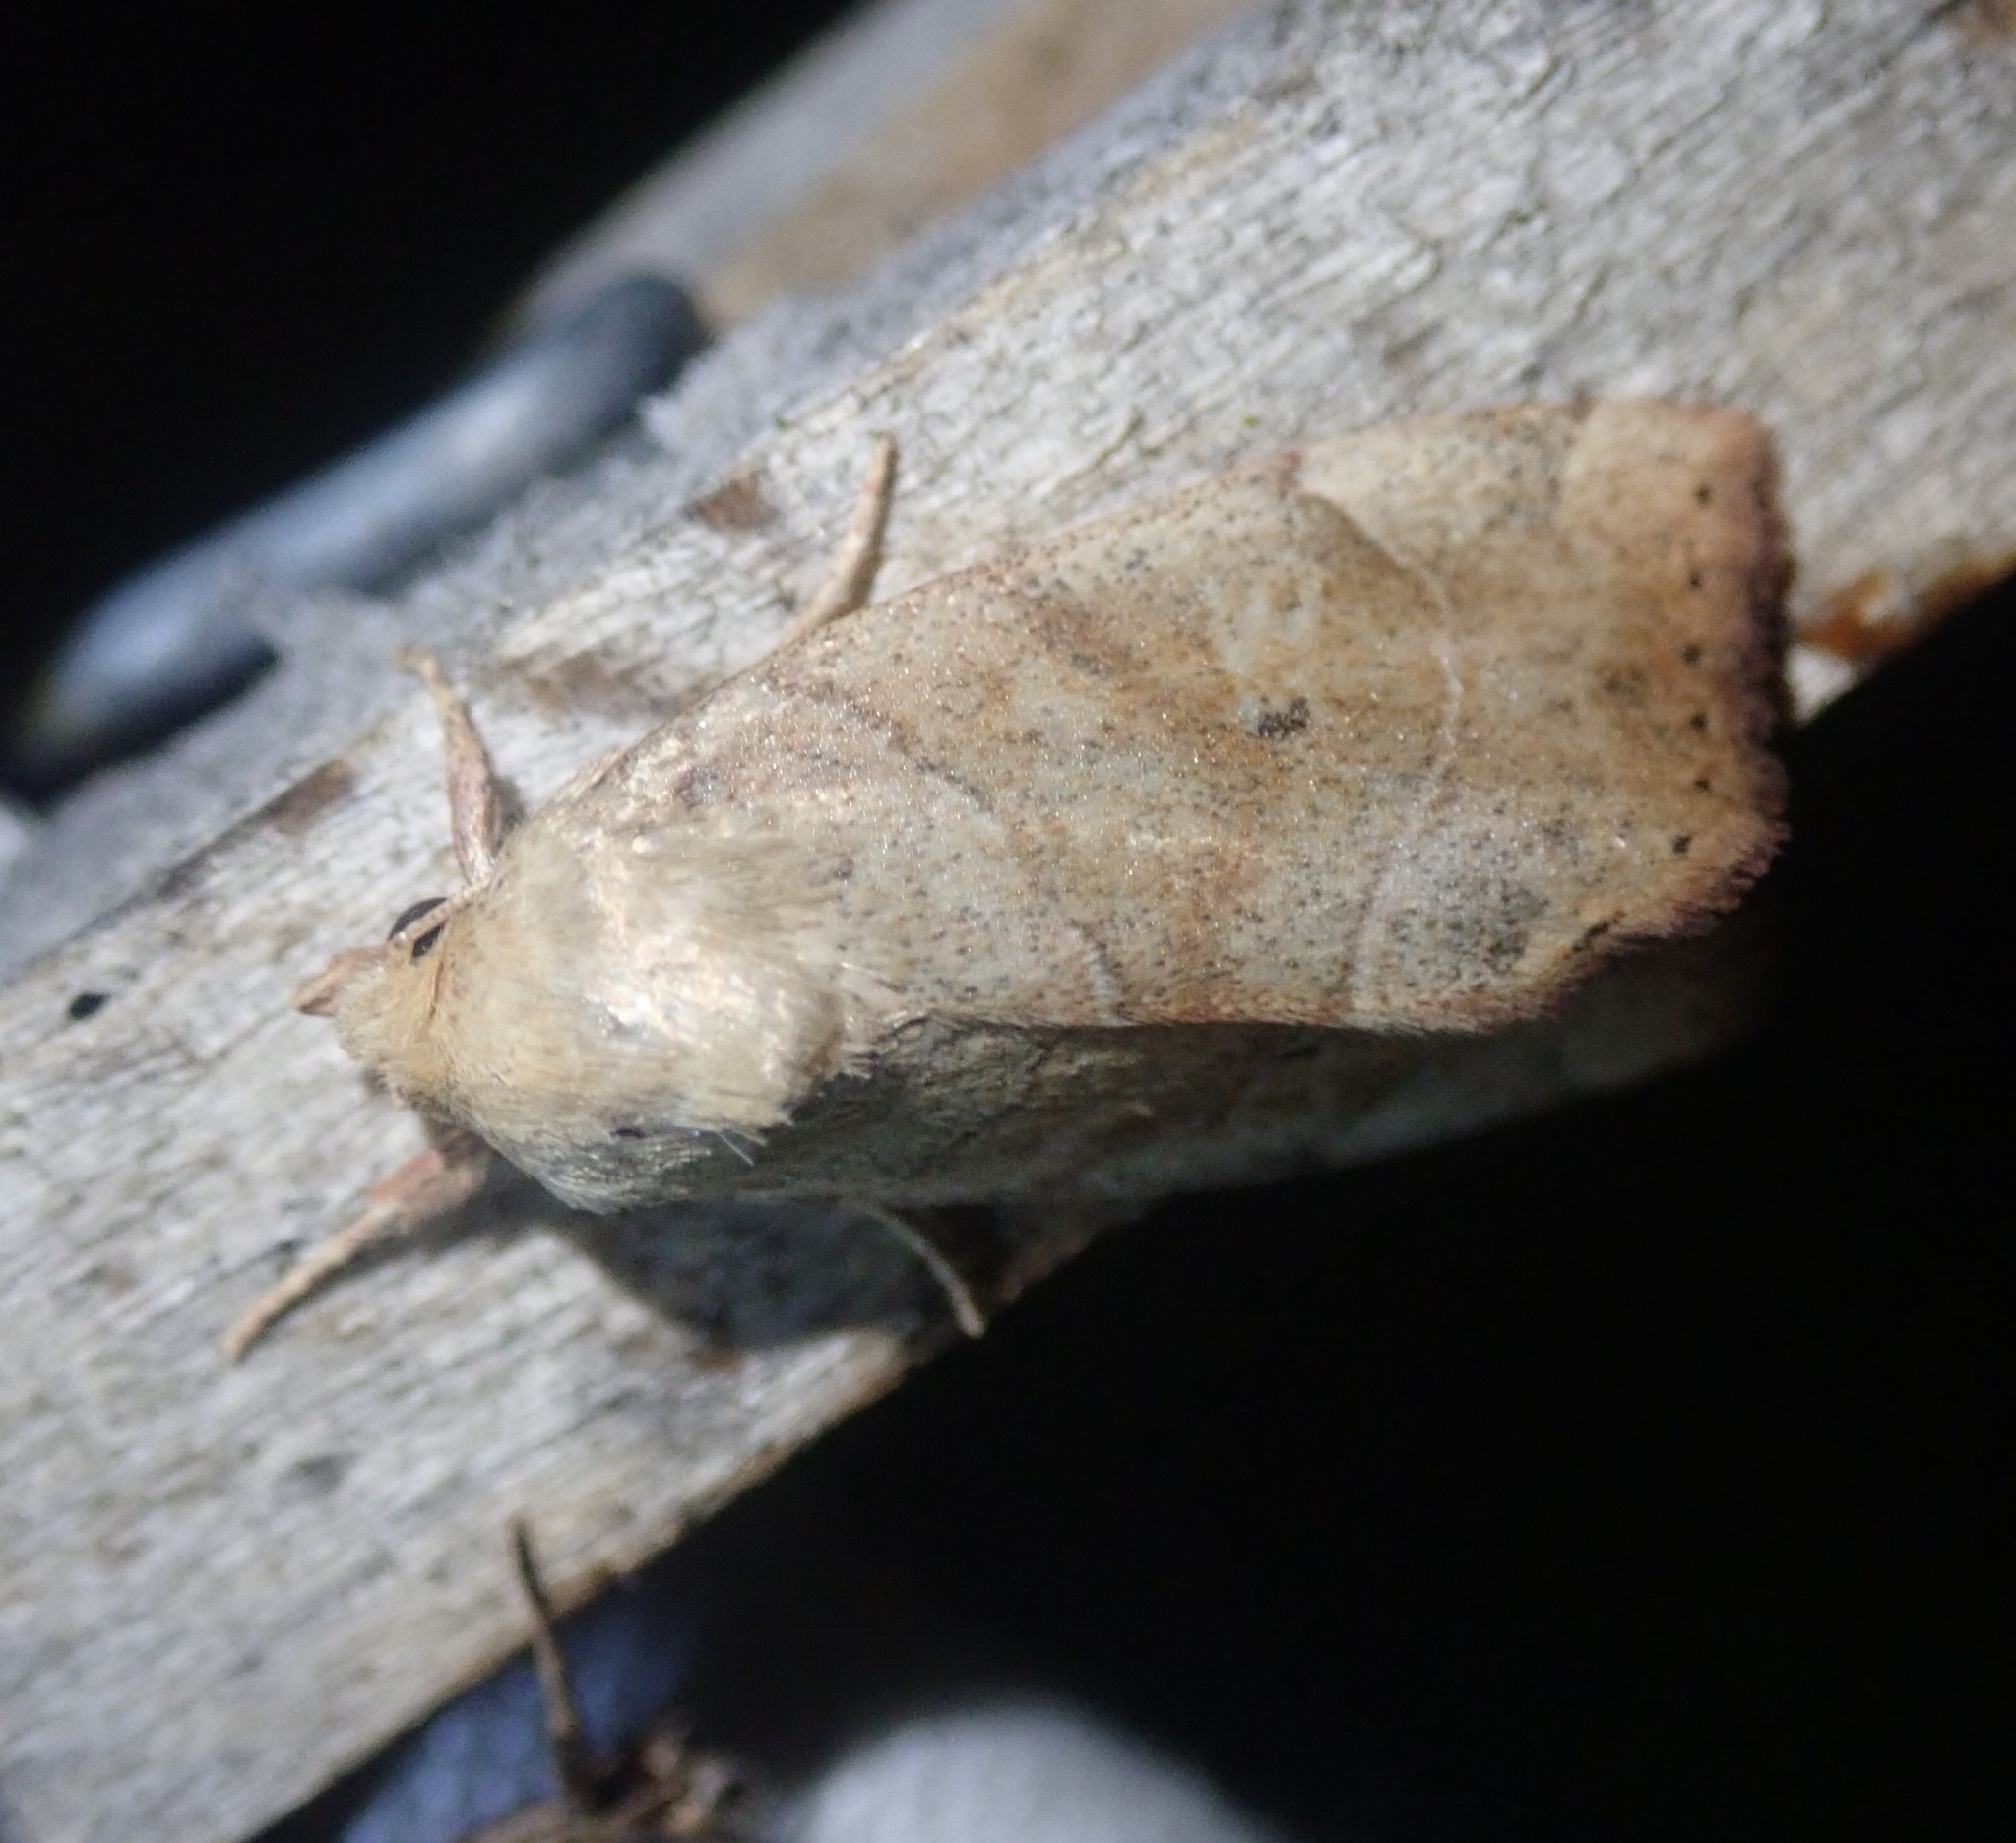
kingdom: Animalia
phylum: Arthropoda
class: Insecta
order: Lepidoptera
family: Noctuidae
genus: Cosmia
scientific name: Cosmia trapezina
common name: Dun-bar
